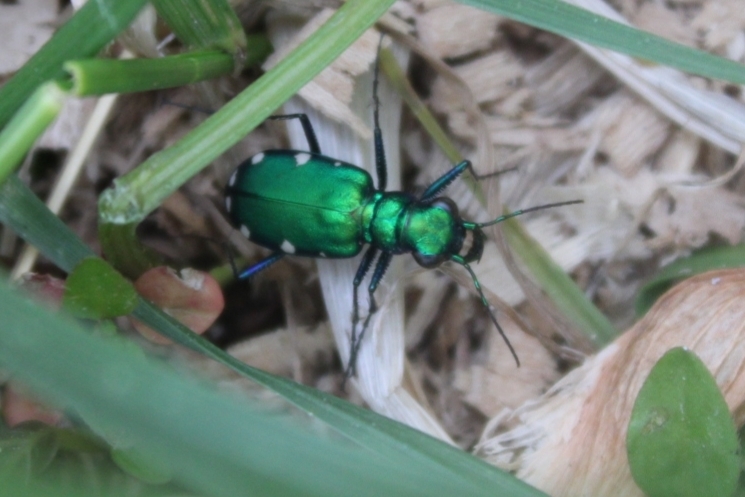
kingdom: Animalia
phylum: Arthropoda
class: Insecta
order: Coleoptera
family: Carabidae
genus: Cicindela
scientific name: Cicindela sexguttata
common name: Six-spotted tiger beetle
